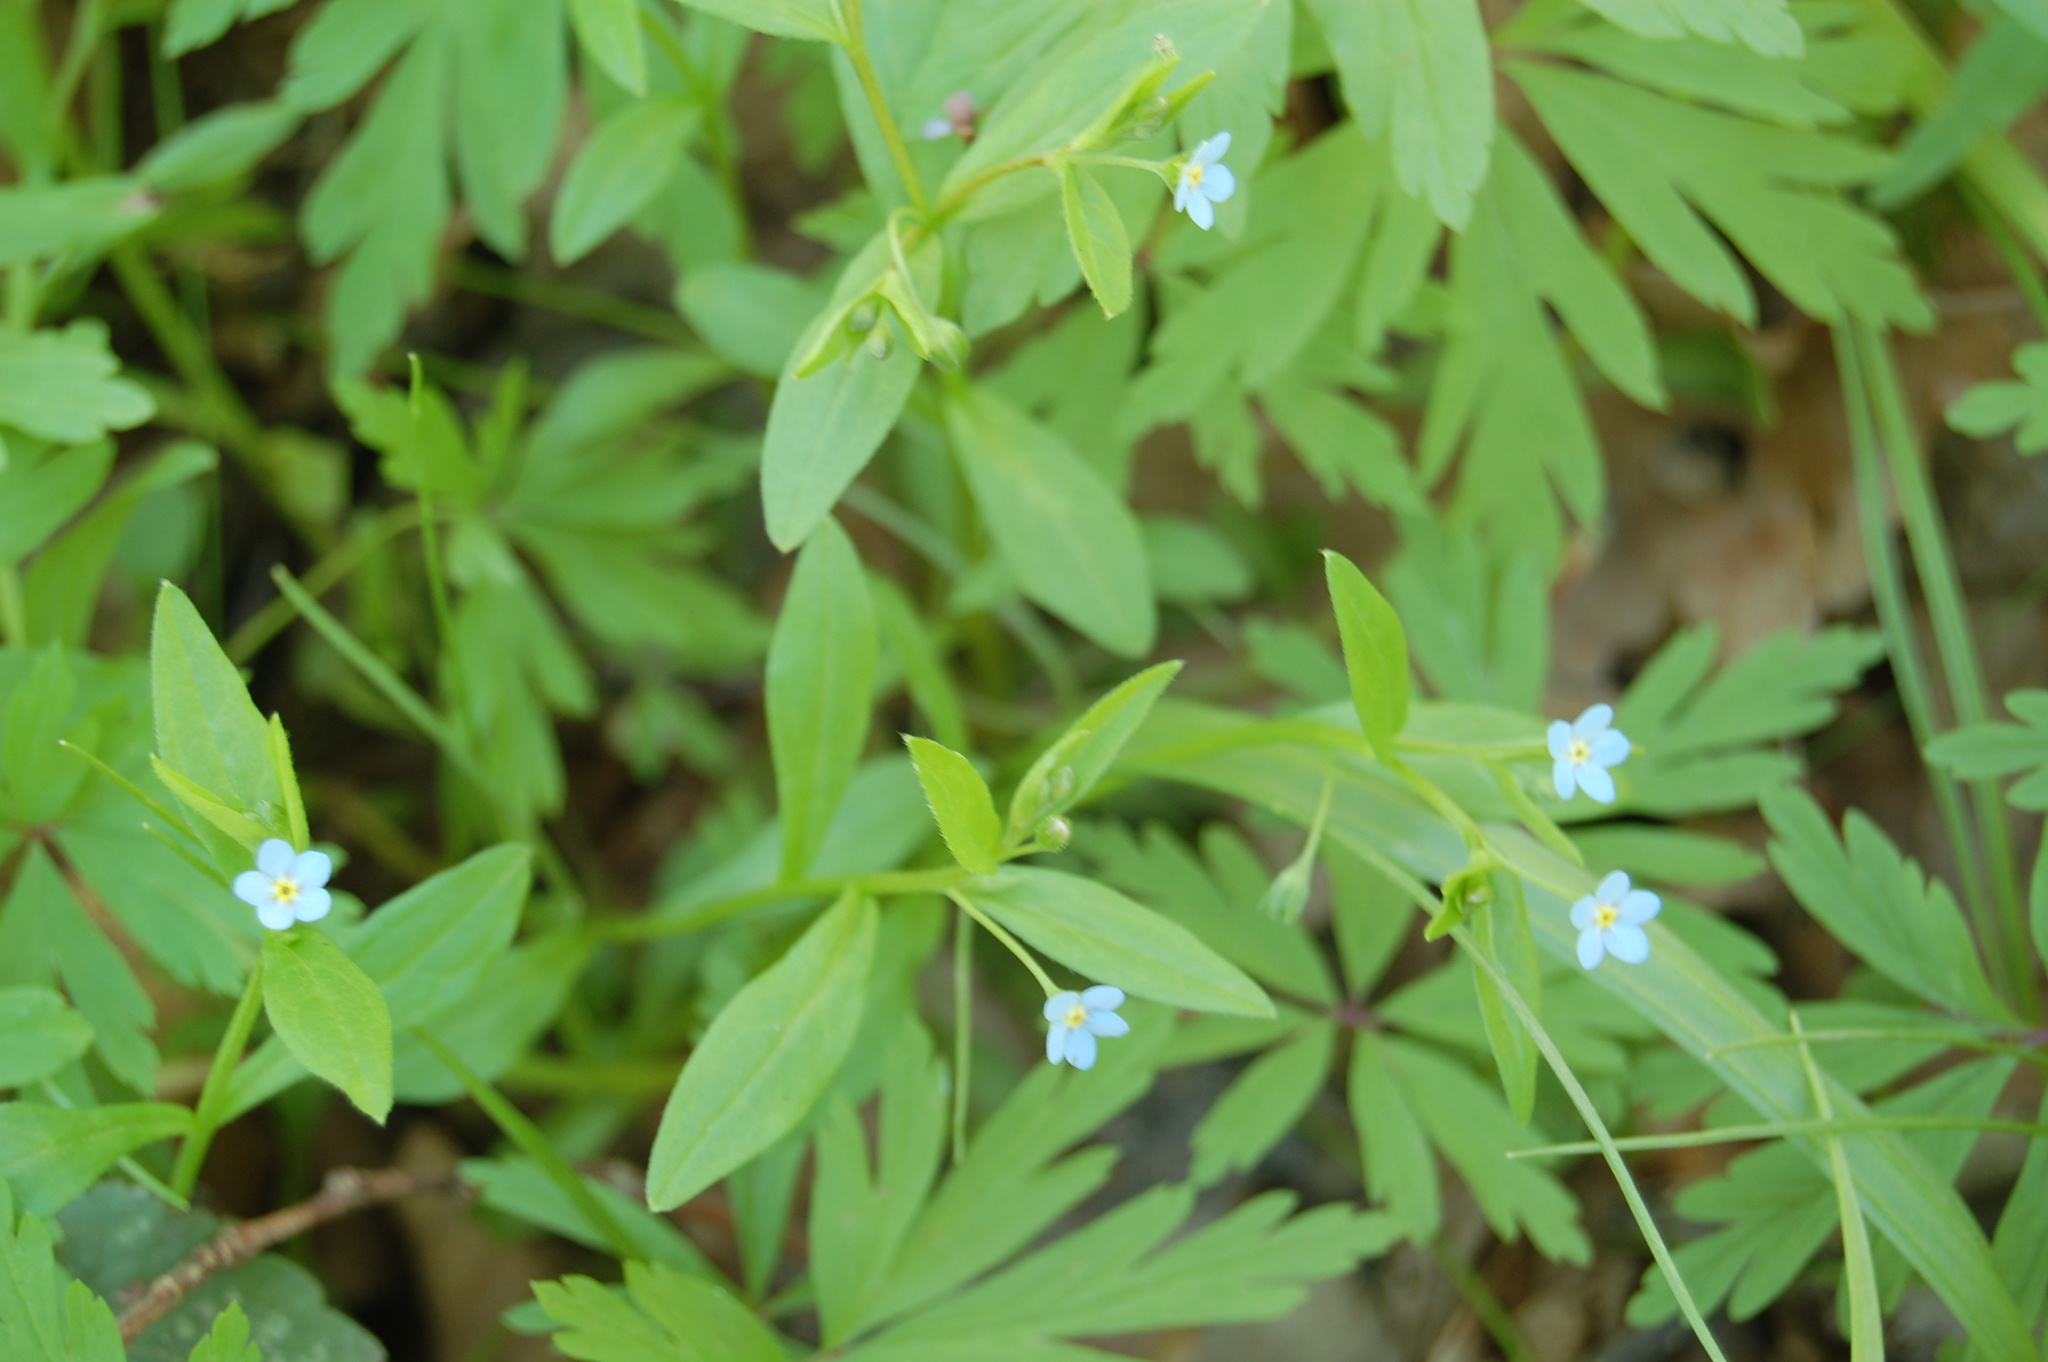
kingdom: Plantae
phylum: Tracheophyta
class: Magnoliopsida
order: Boraginales
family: Boraginaceae
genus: Memoremea
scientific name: Memoremea scorpioides
